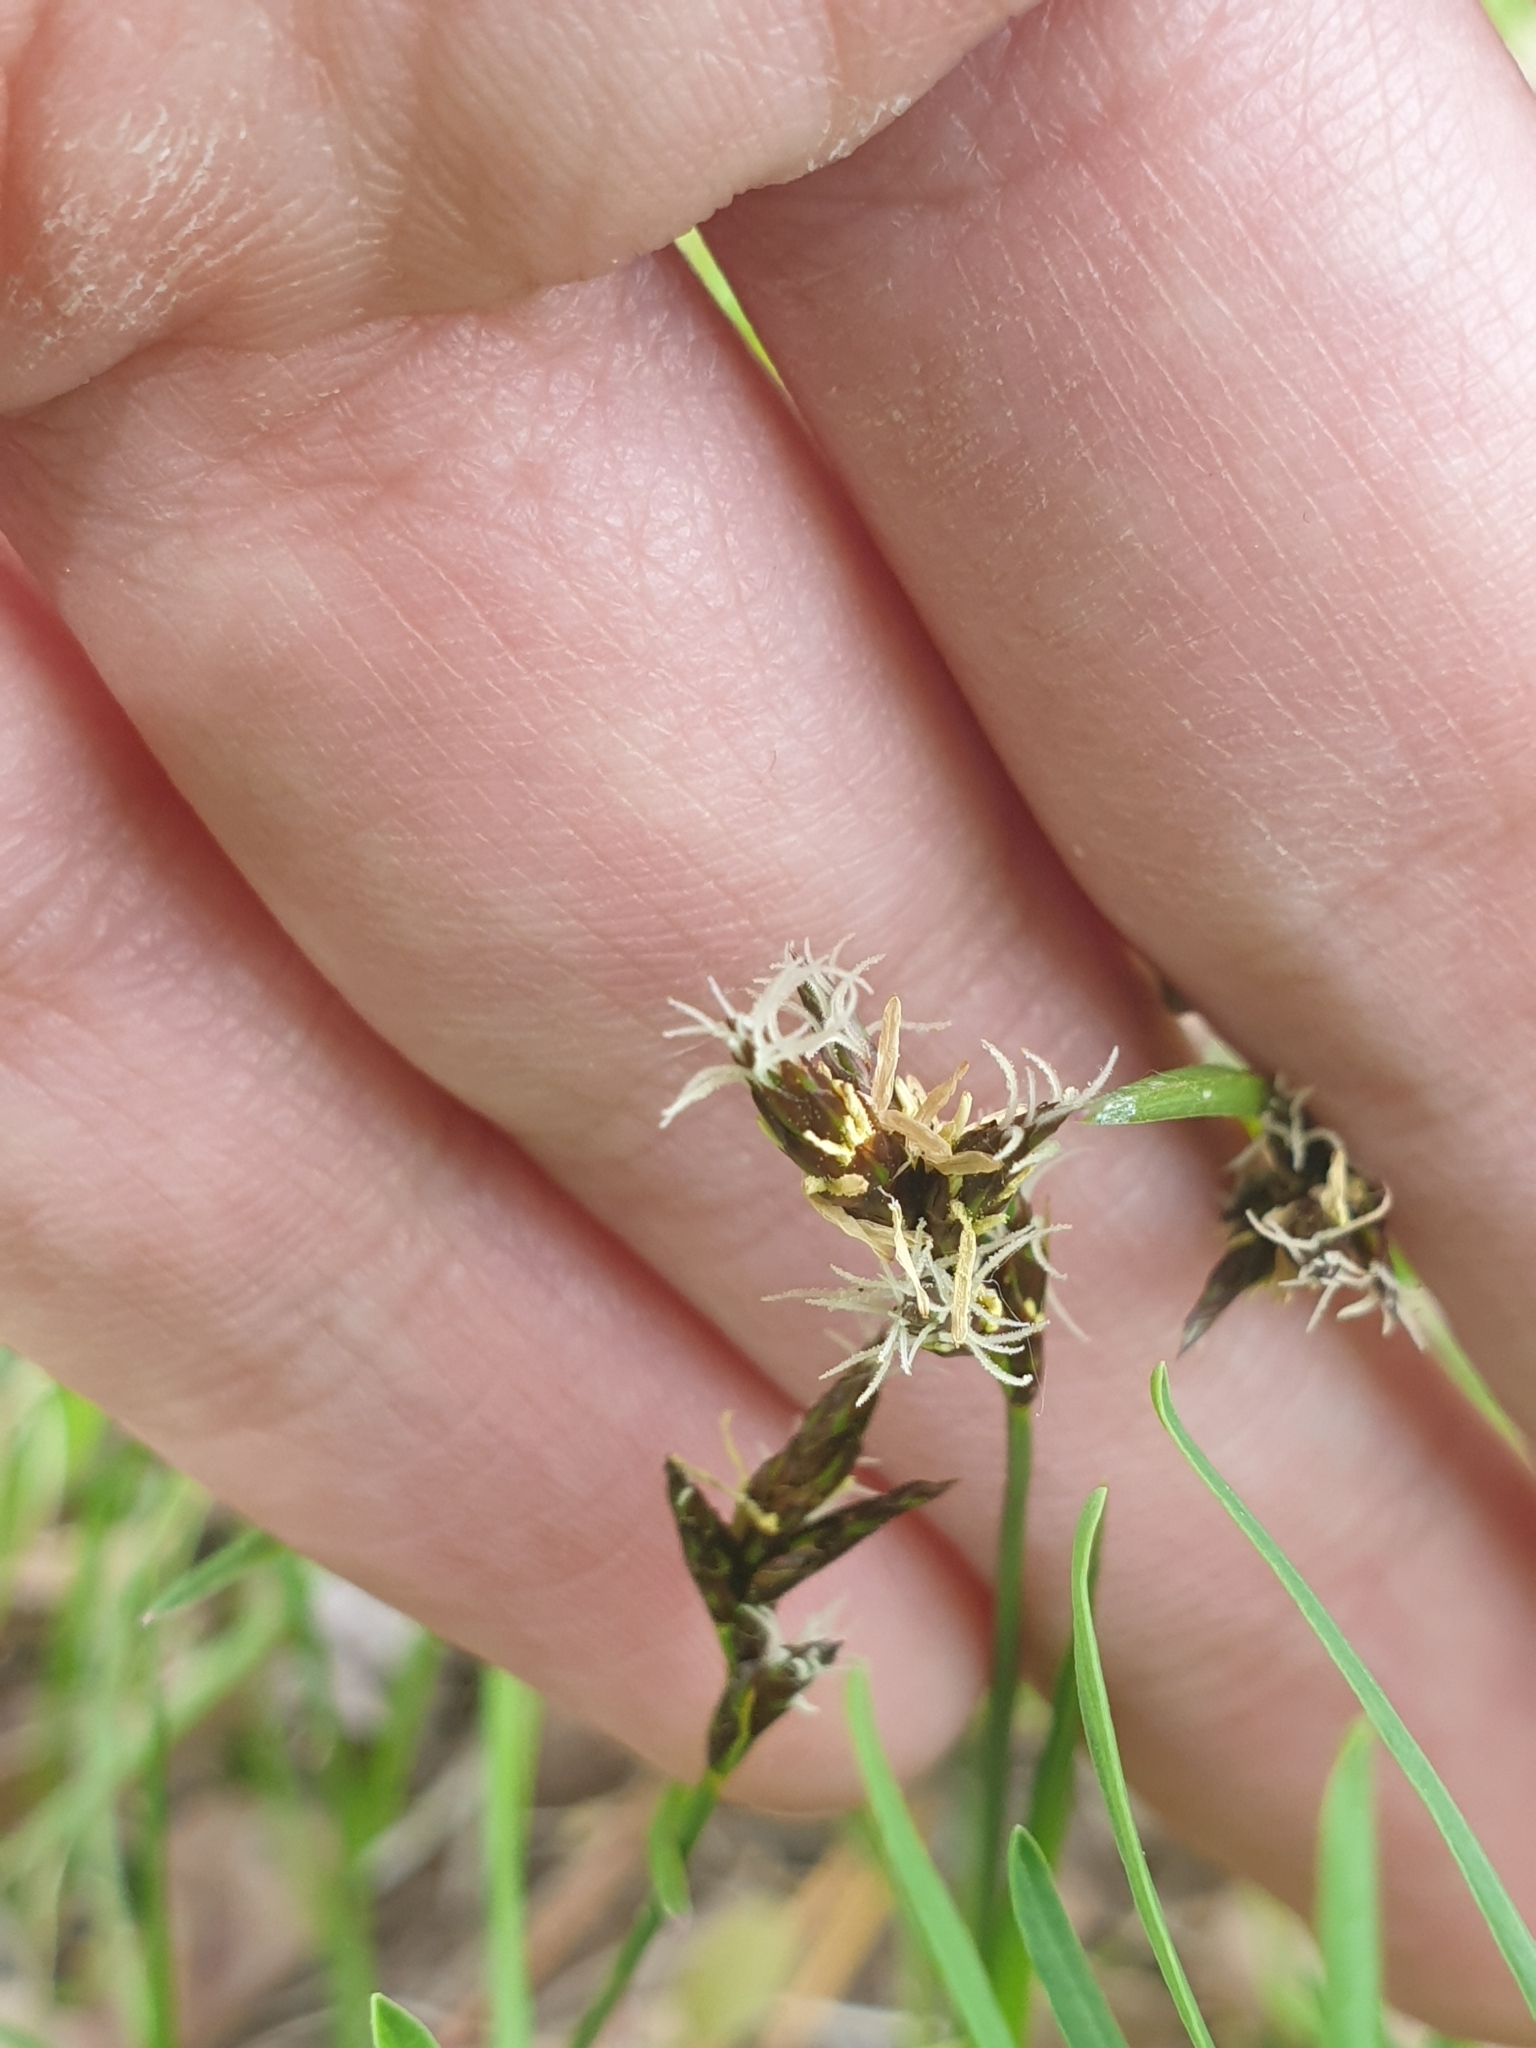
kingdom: Plantae
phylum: Tracheophyta
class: Liliopsida
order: Poales
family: Cyperaceae
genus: Carex
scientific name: Carex praecox
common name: Early sedge
